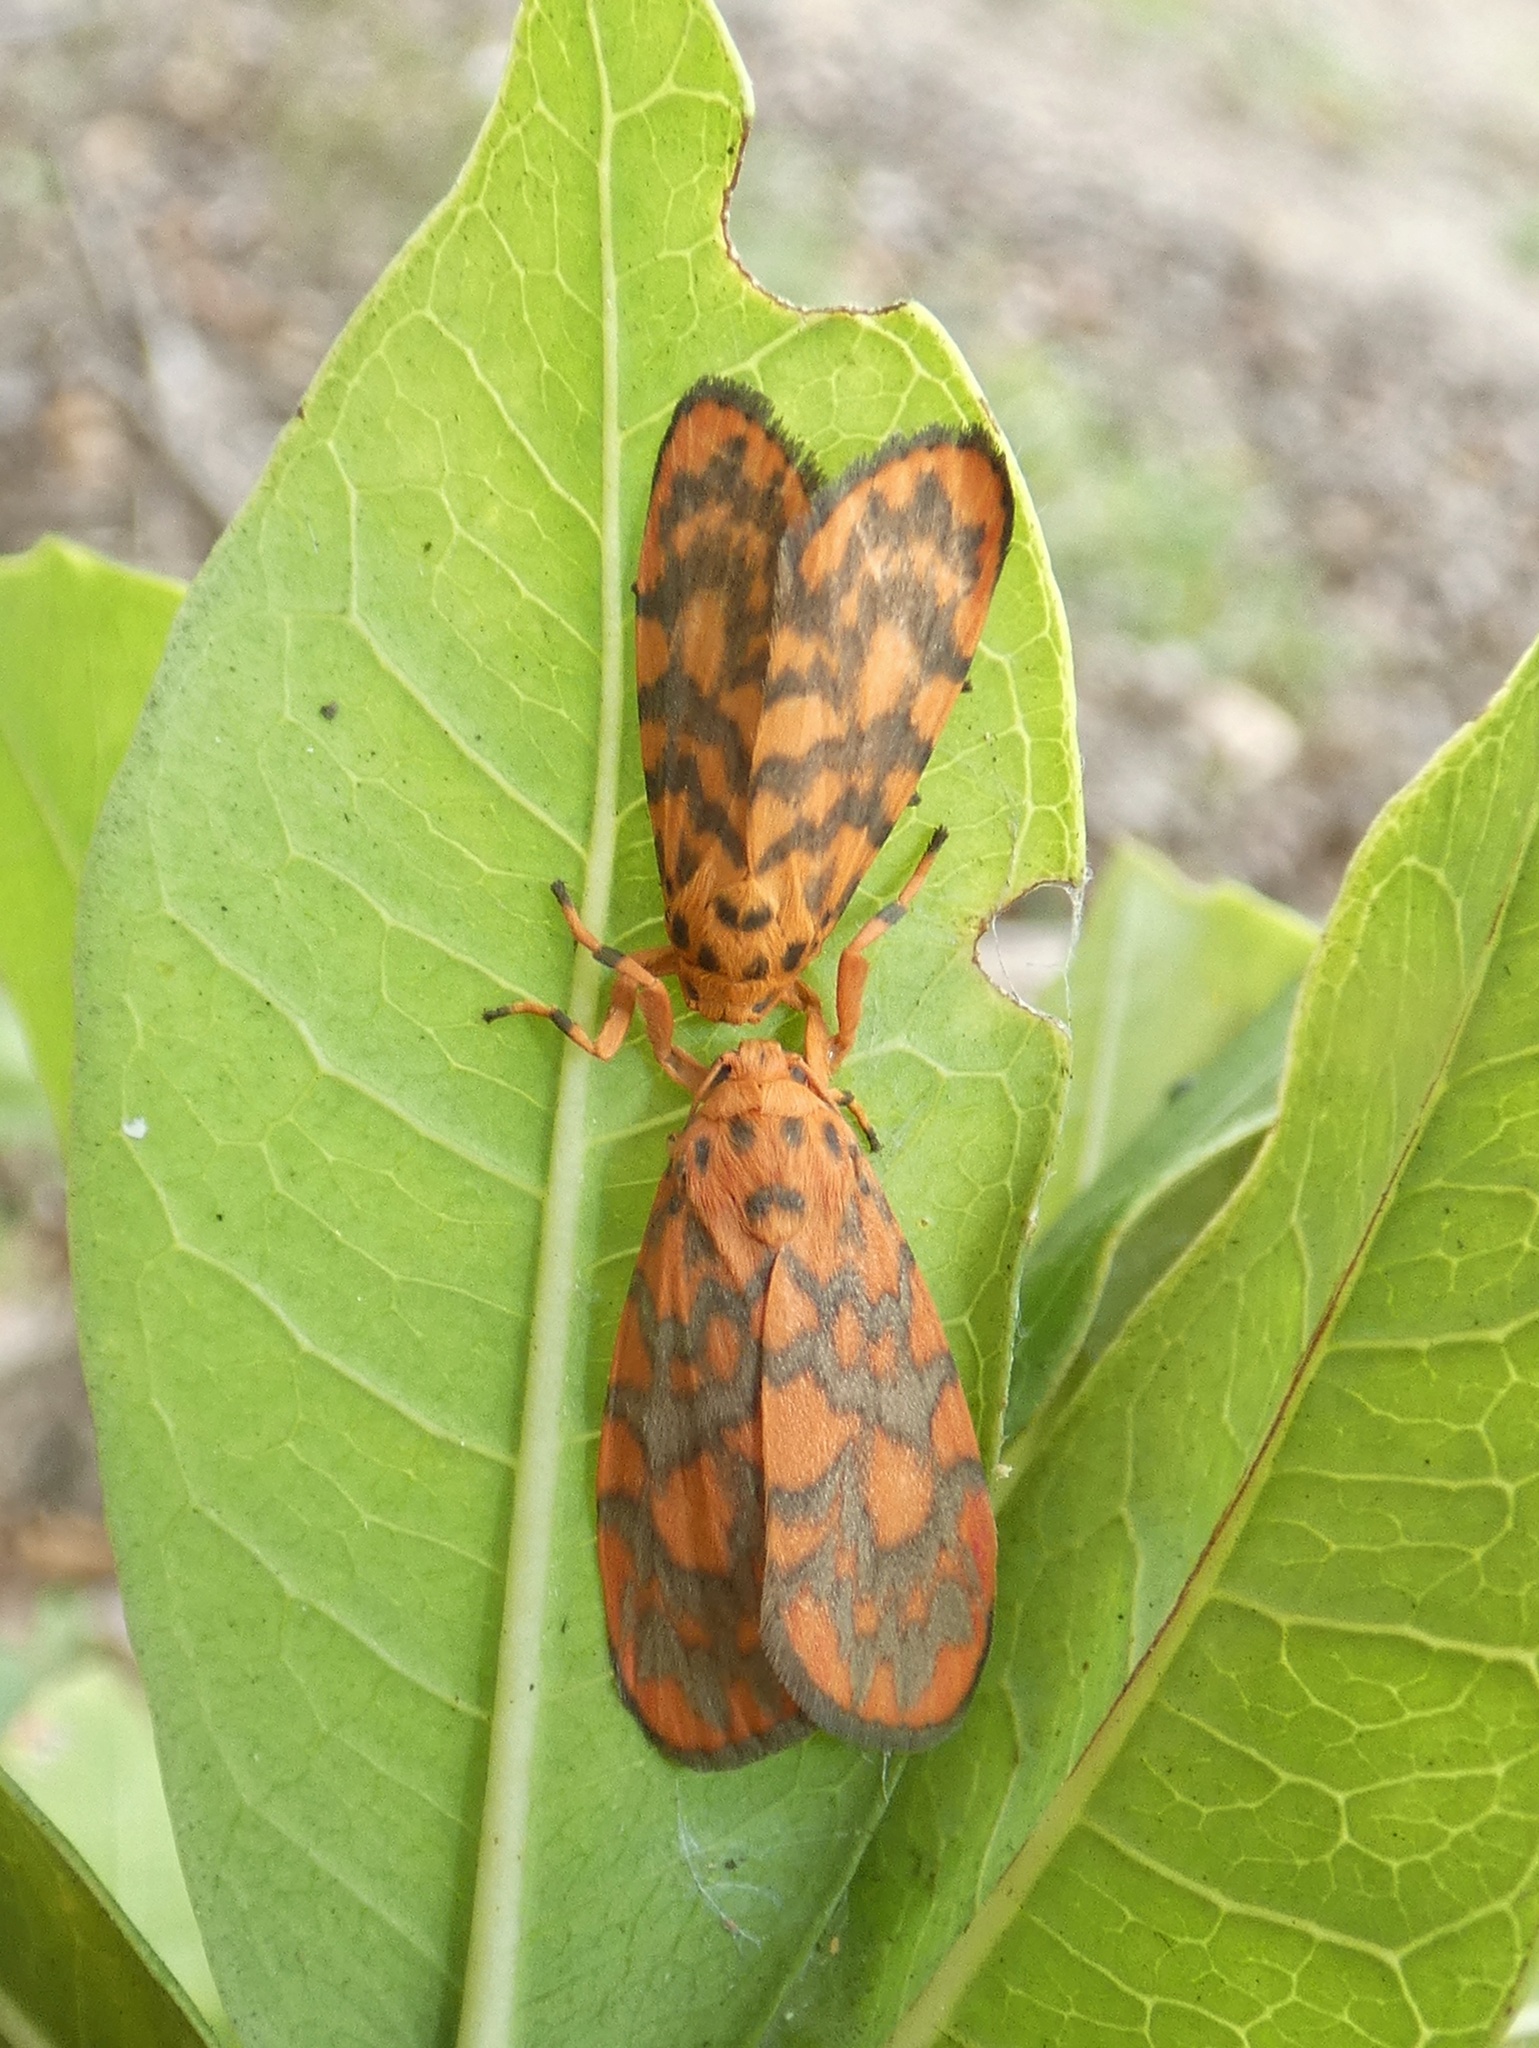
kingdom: Animalia
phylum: Arthropoda
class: Insecta
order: Lepidoptera
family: Erebidae
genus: Cyme
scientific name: Cyme pyraula
